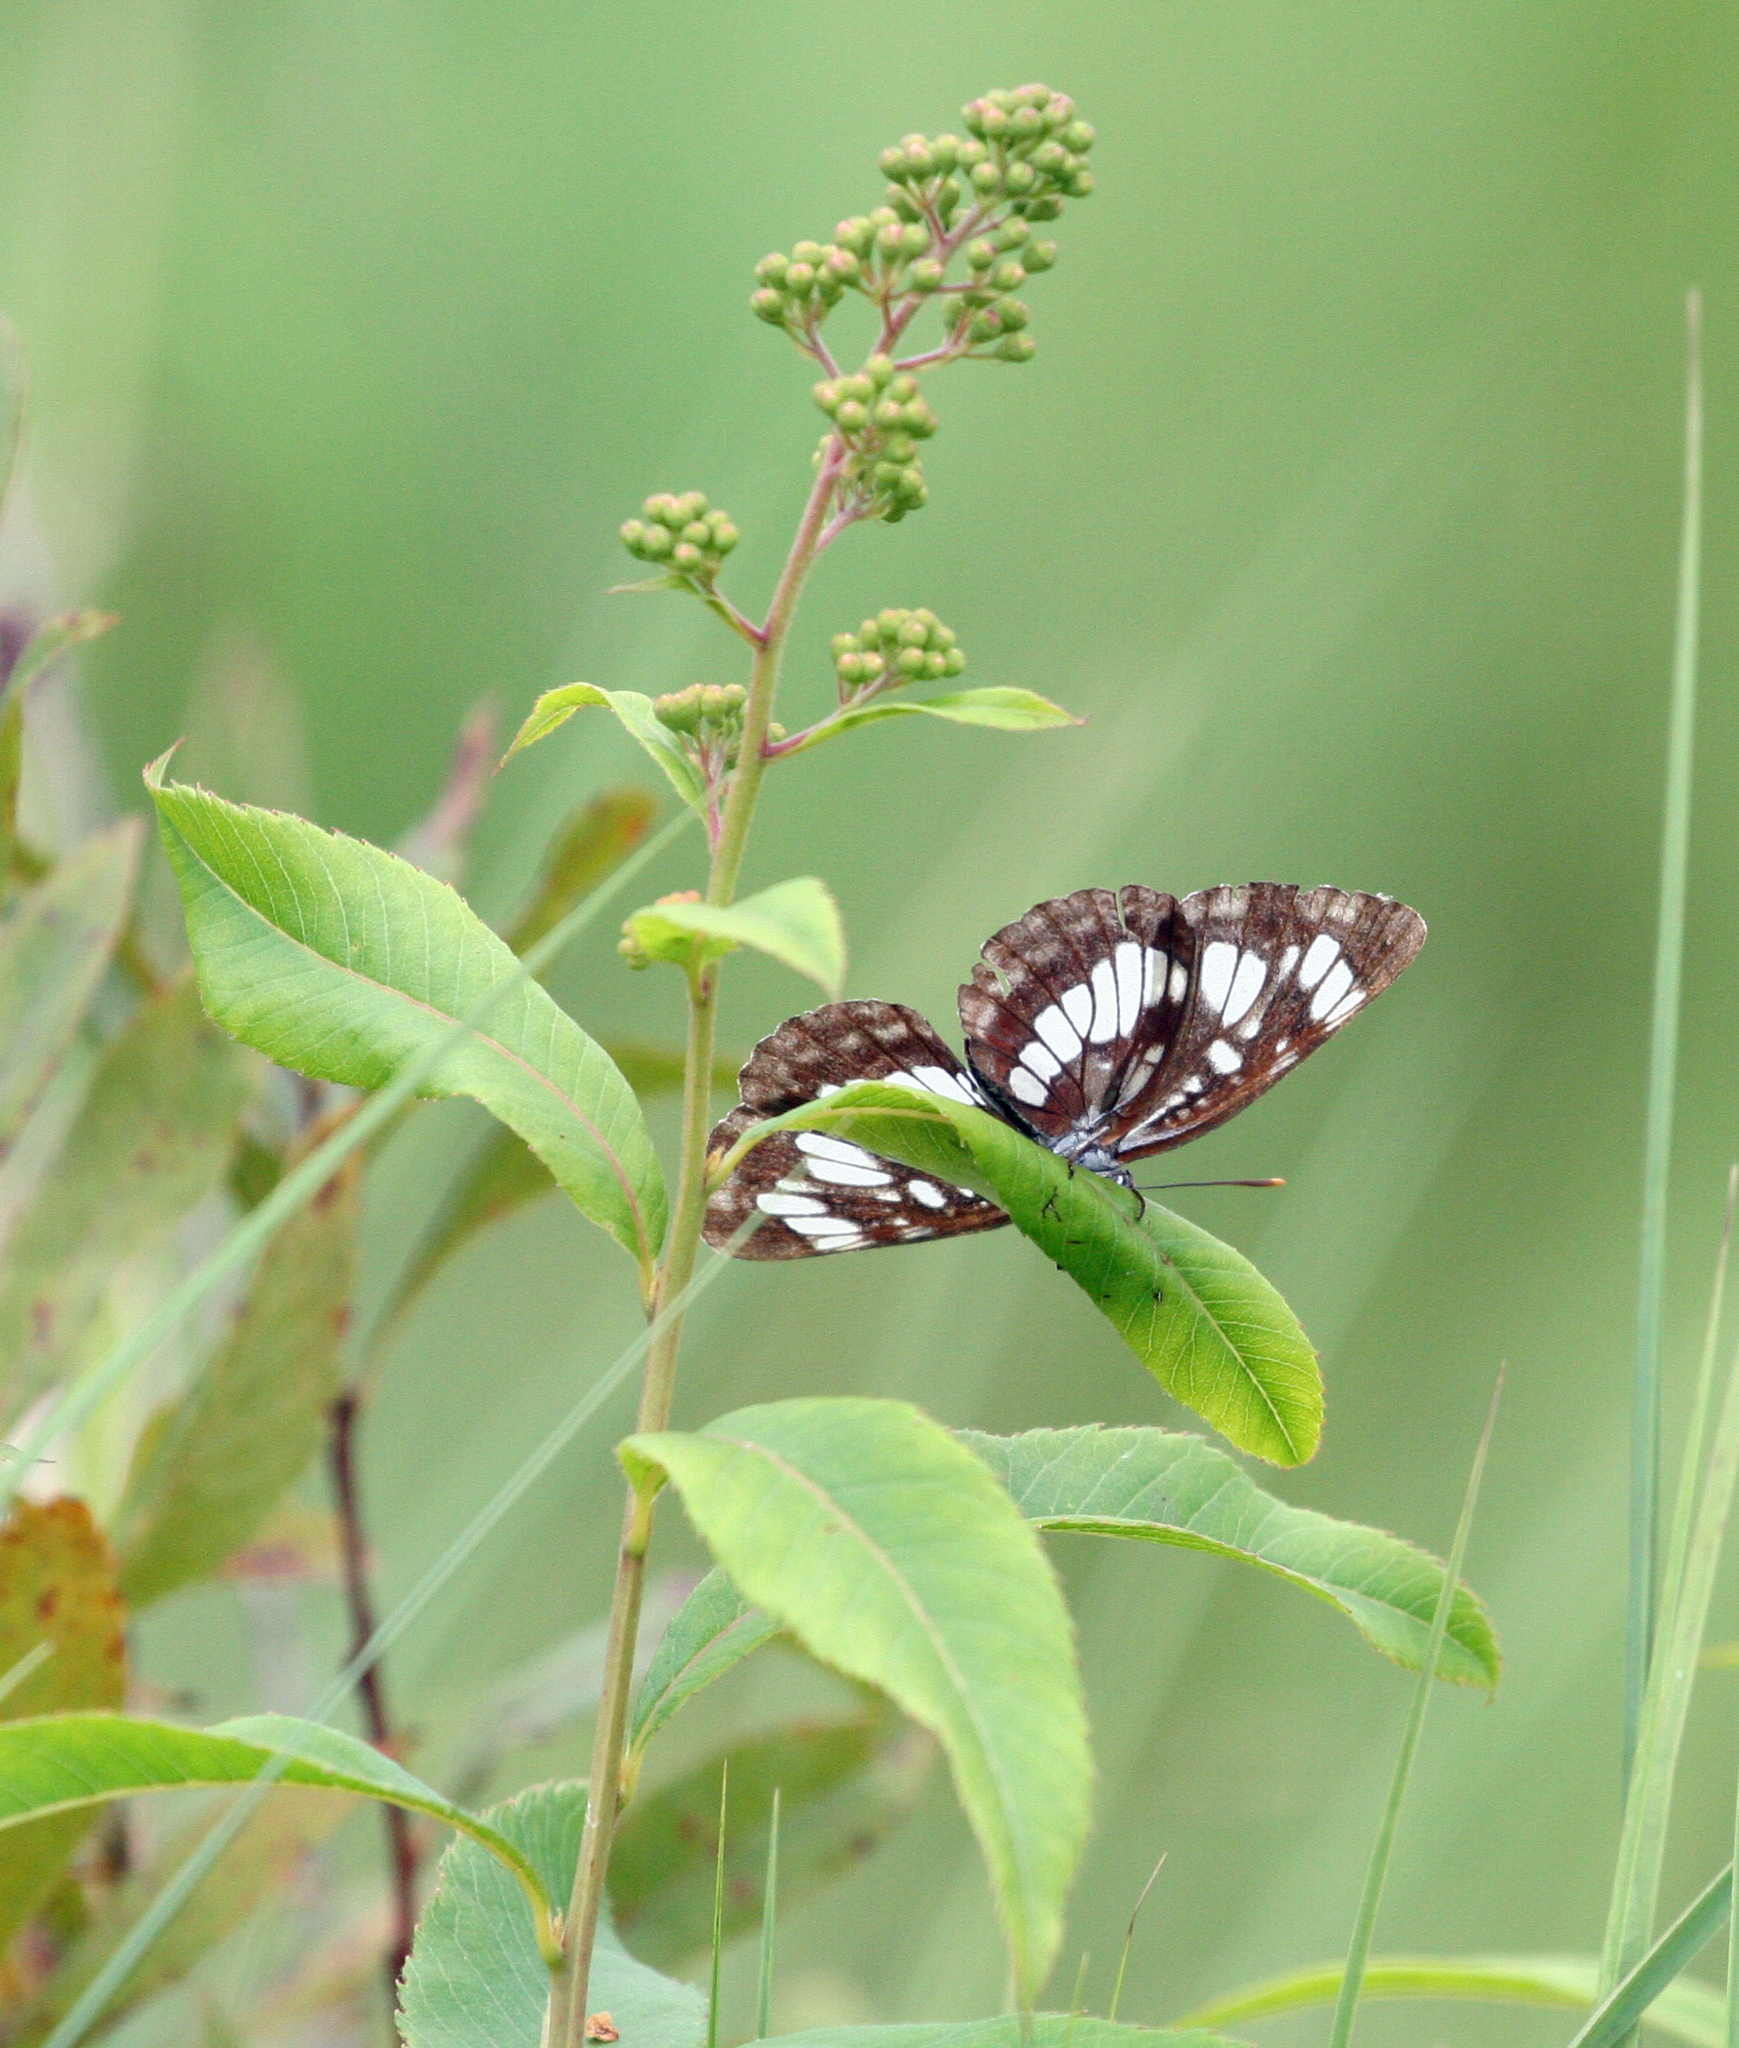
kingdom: Animalia
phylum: Arthropoda
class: Insecta
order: Lepidoptera
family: Nymphalidae
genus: Neptis
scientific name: Neptis rivularis
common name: Hungarian glider
